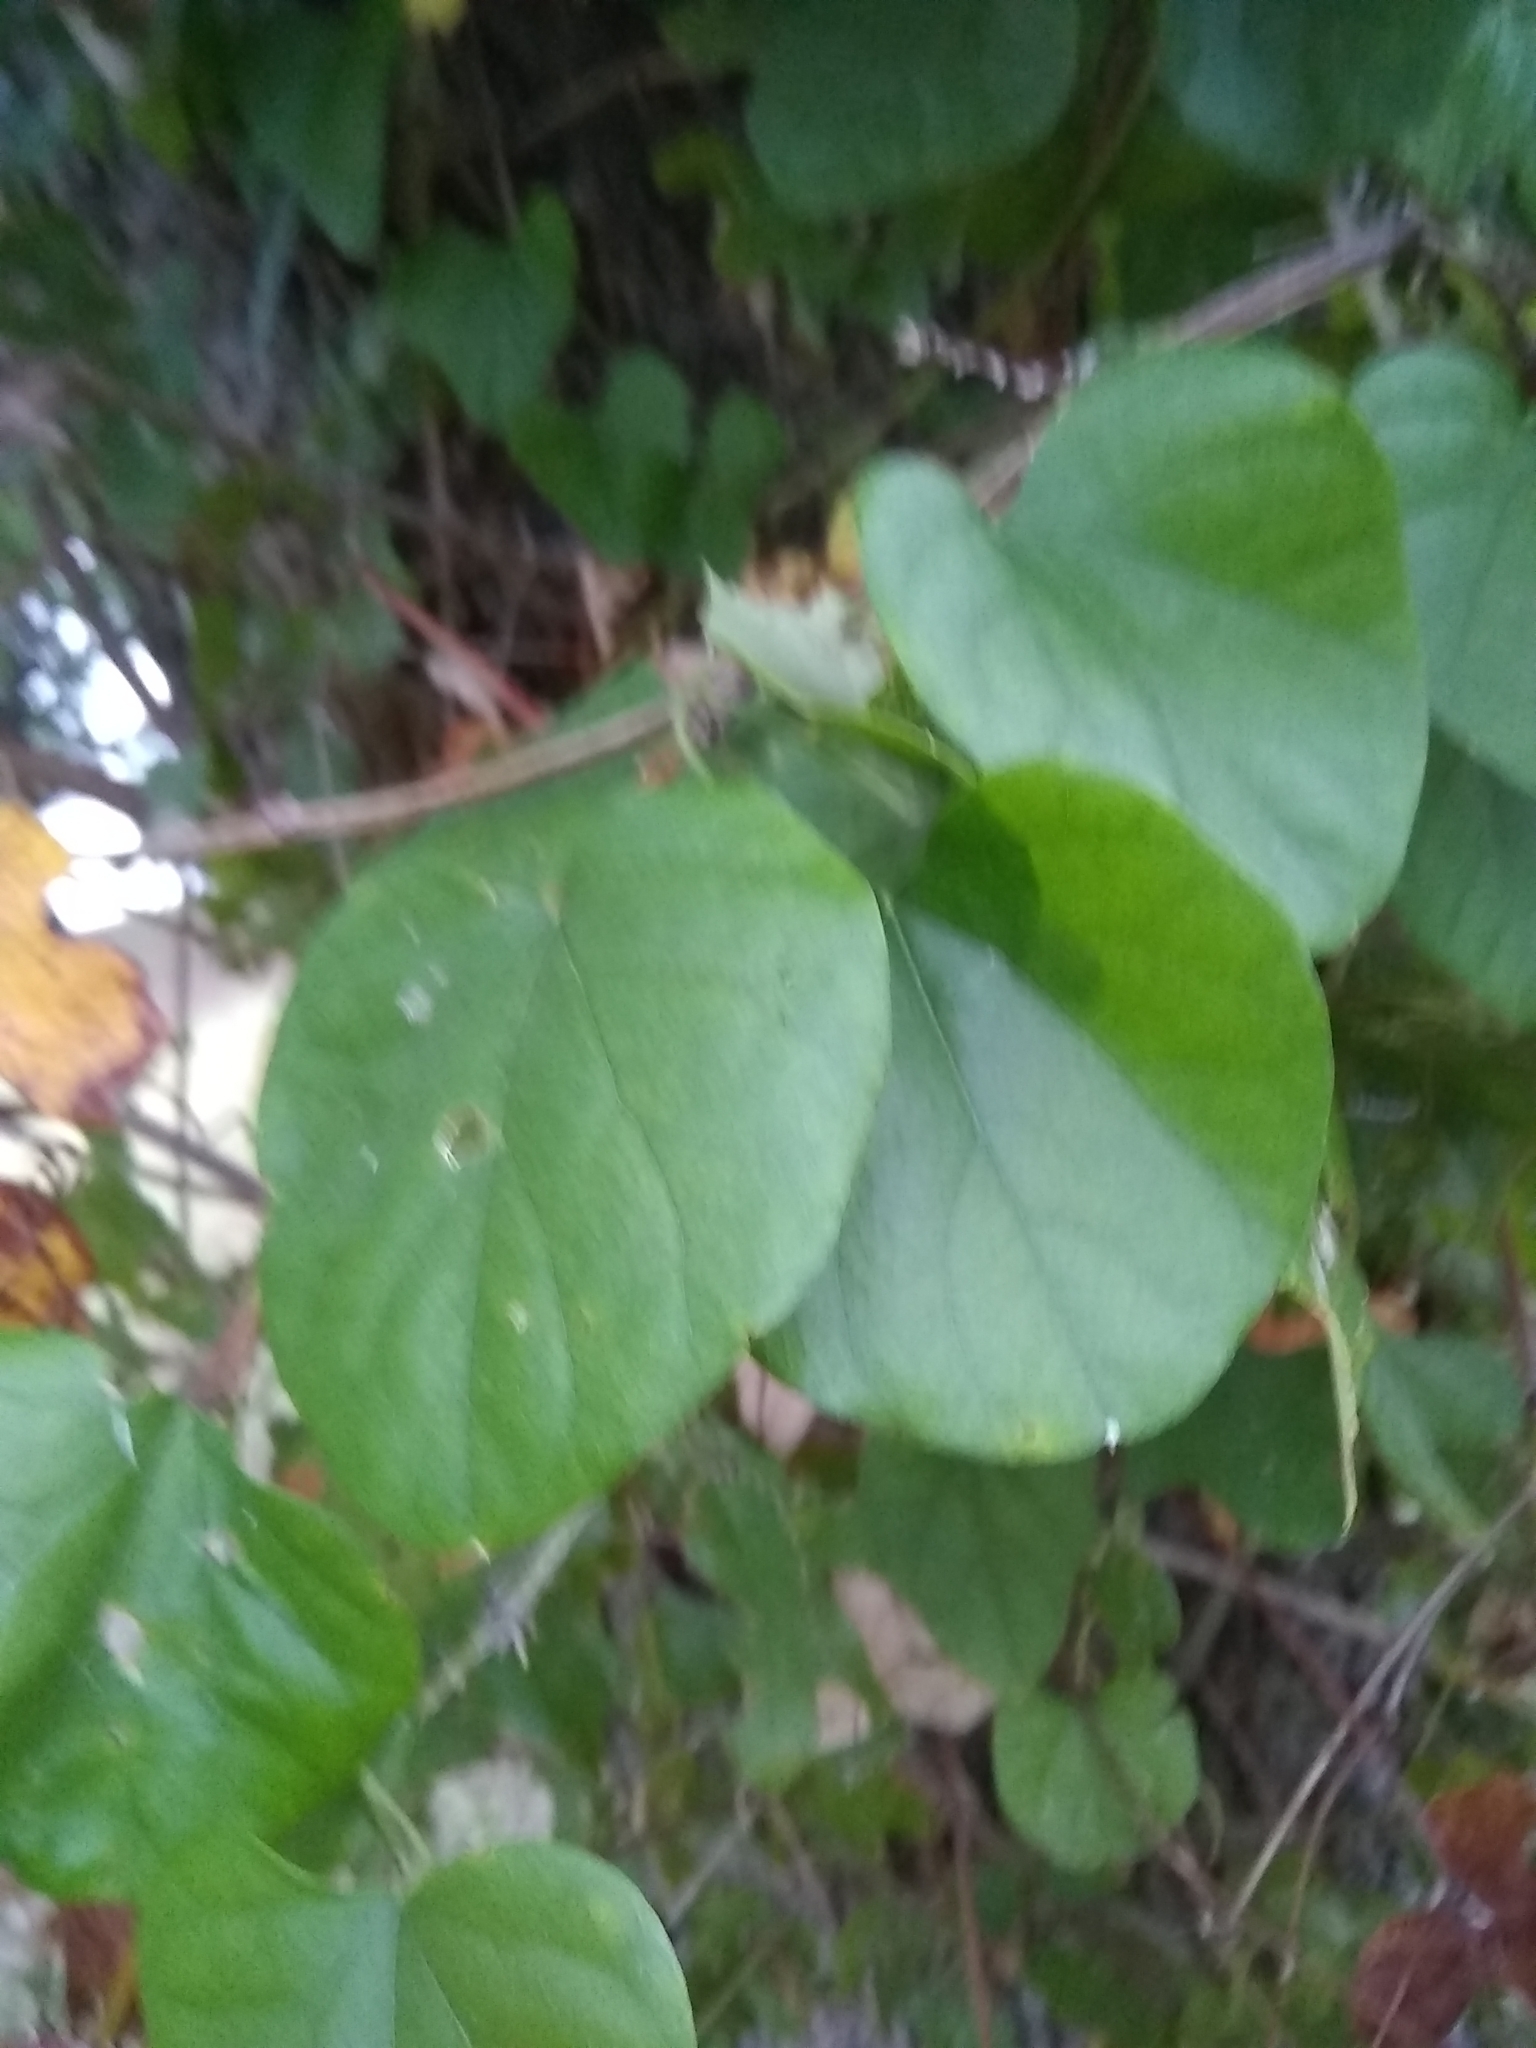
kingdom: Plantae
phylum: Tracheophyta
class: Magnoliopsida
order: Ranunculales
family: Menispermaceae
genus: Cocculus
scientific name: Cocculus carolinus
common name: Carolina moonseed
